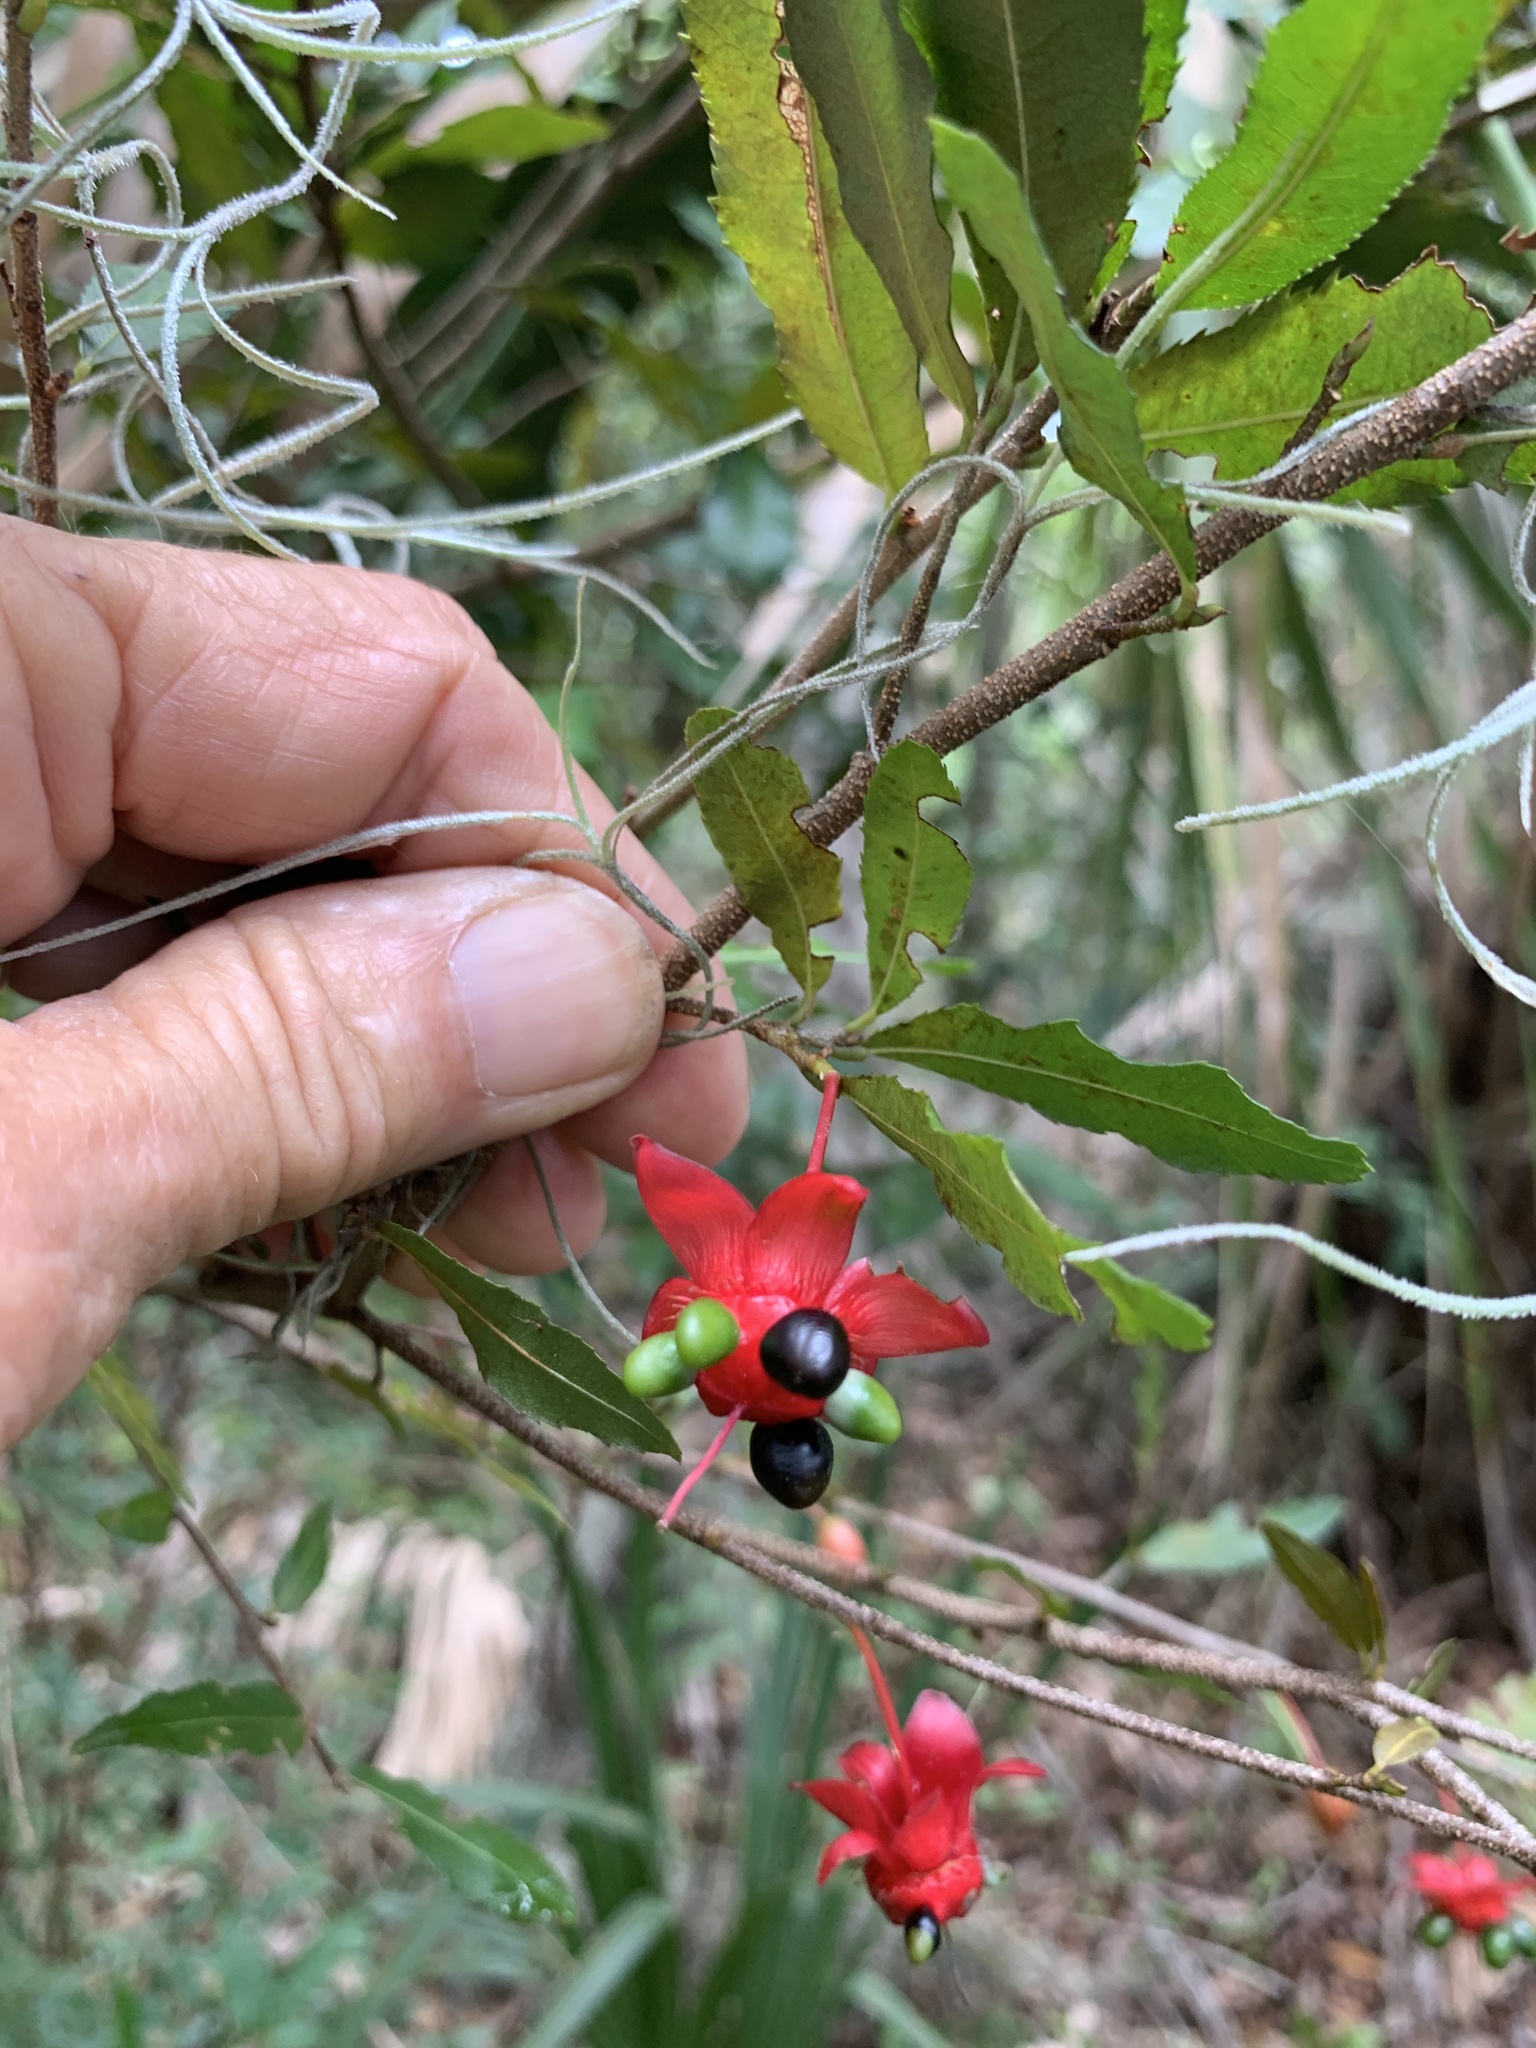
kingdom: Plantae
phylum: Tracheophyta
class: Magnoliopsida
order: Malpighiales
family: Ochnaceae
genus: Ochna
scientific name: Ochna serrulata
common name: Mickey mouse plant
